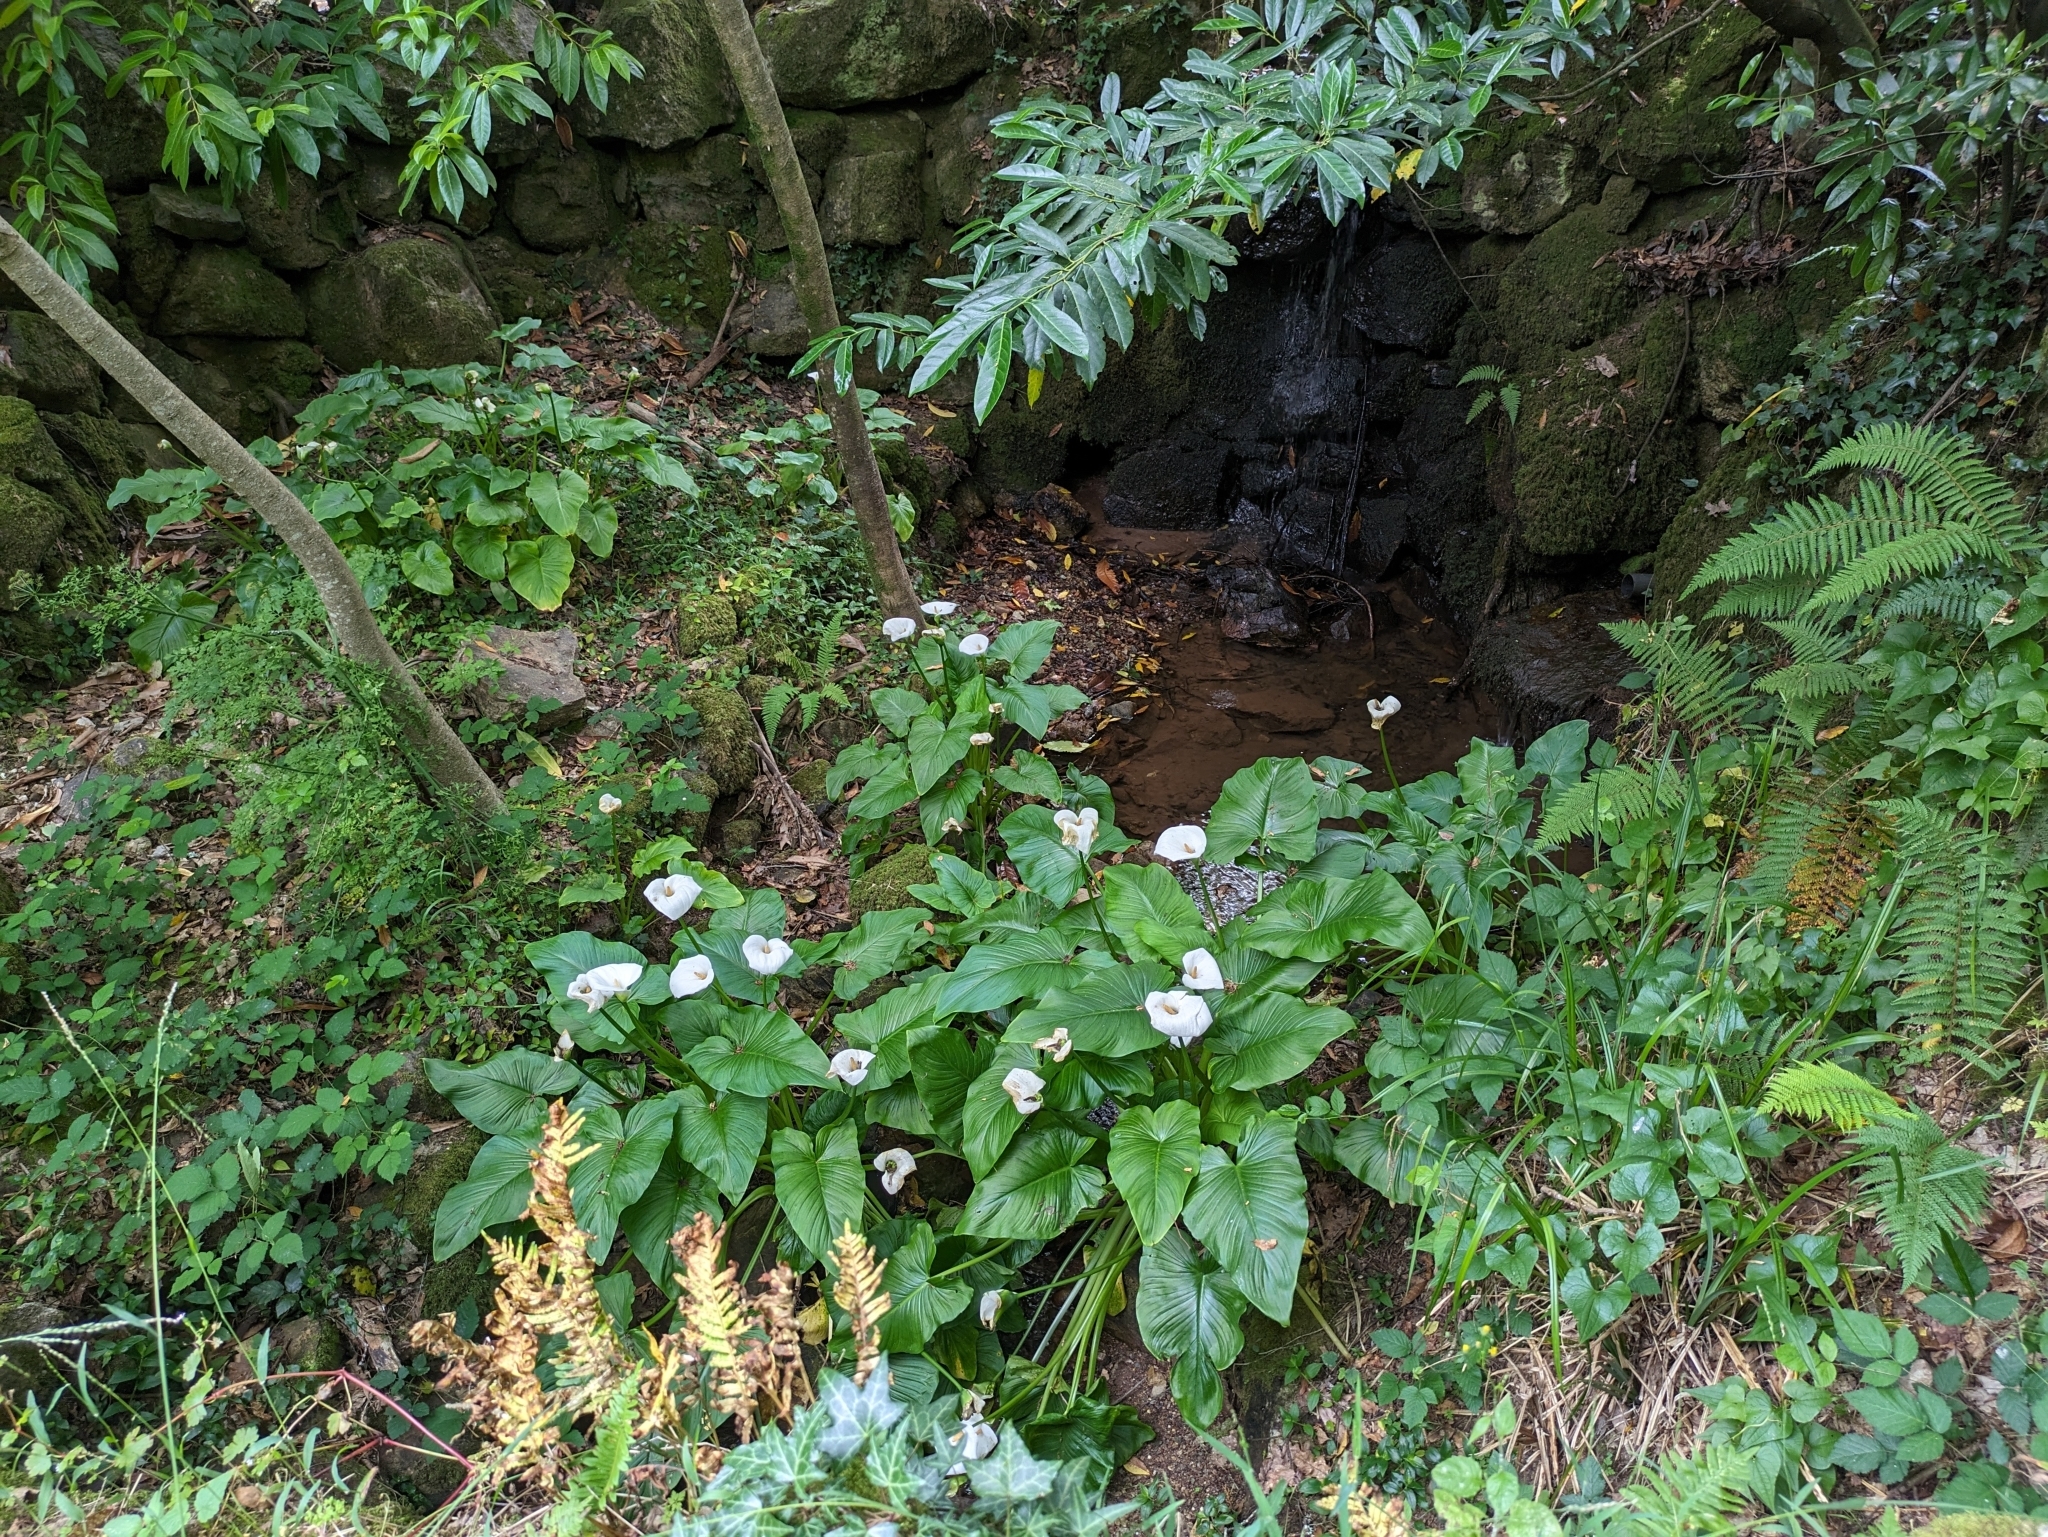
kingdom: Plantae
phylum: Tracheophyta
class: Liliopsida
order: Alismatales
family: Araceae
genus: Zantedeschia
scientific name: Zantedeschia aethiopica
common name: Altar-lily
